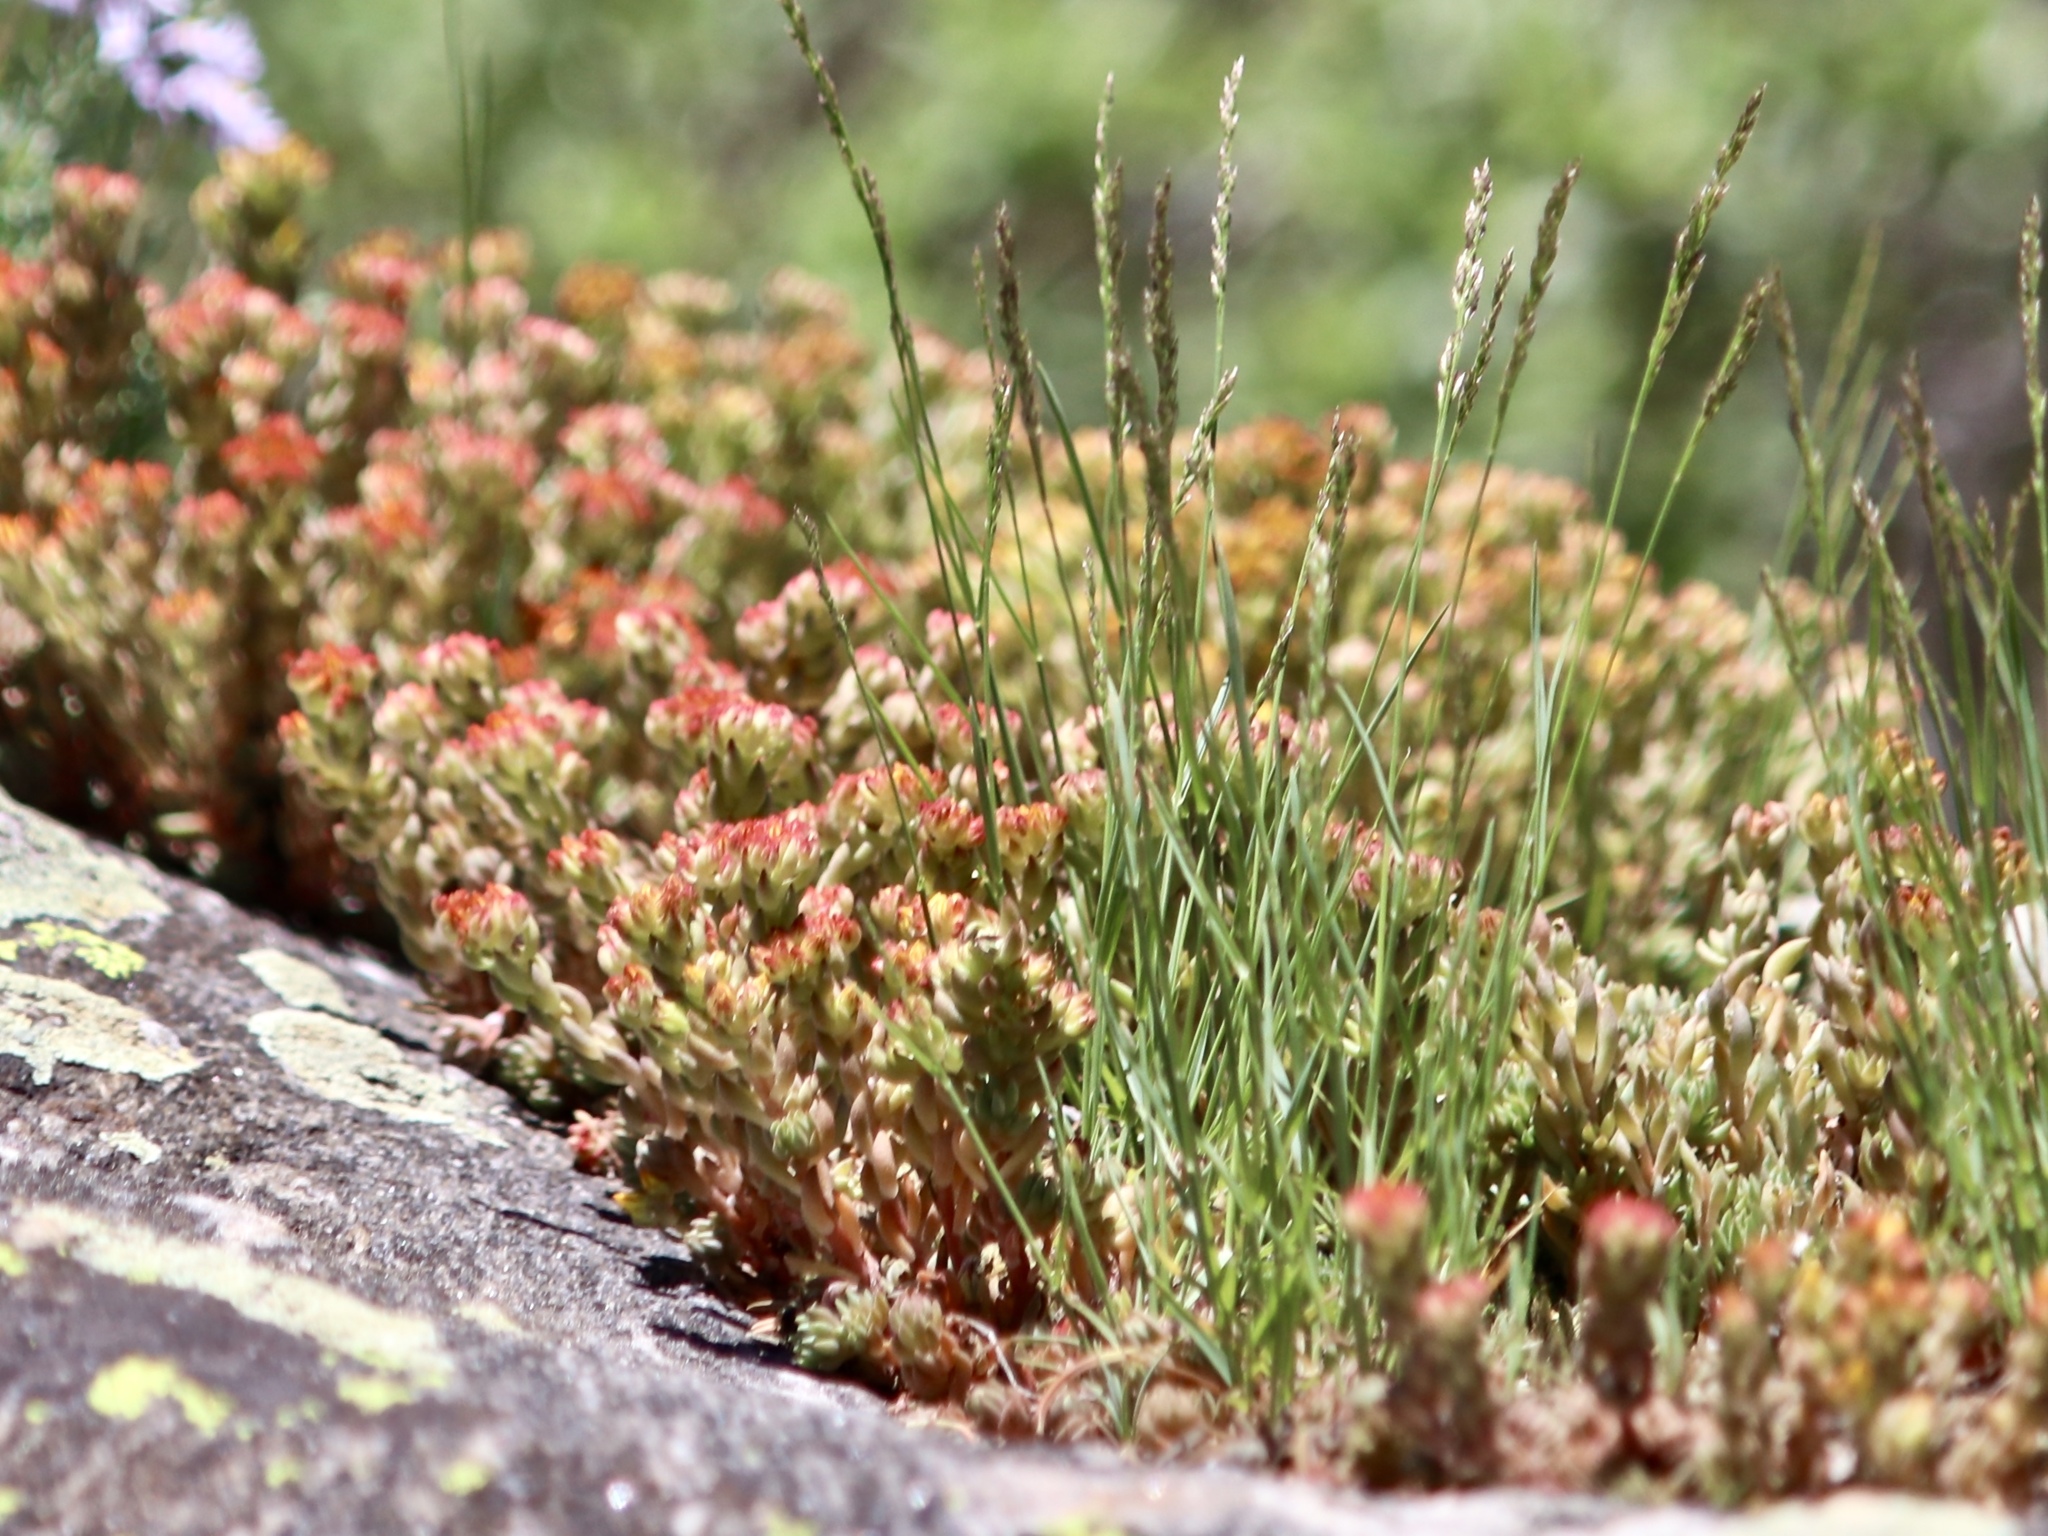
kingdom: Plantae
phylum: Tracheophyta
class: Magnoliopsida
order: Saxifragales
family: Crassulaceae
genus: Sedum
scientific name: Sedum lanceolatum
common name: Common stonecrop
